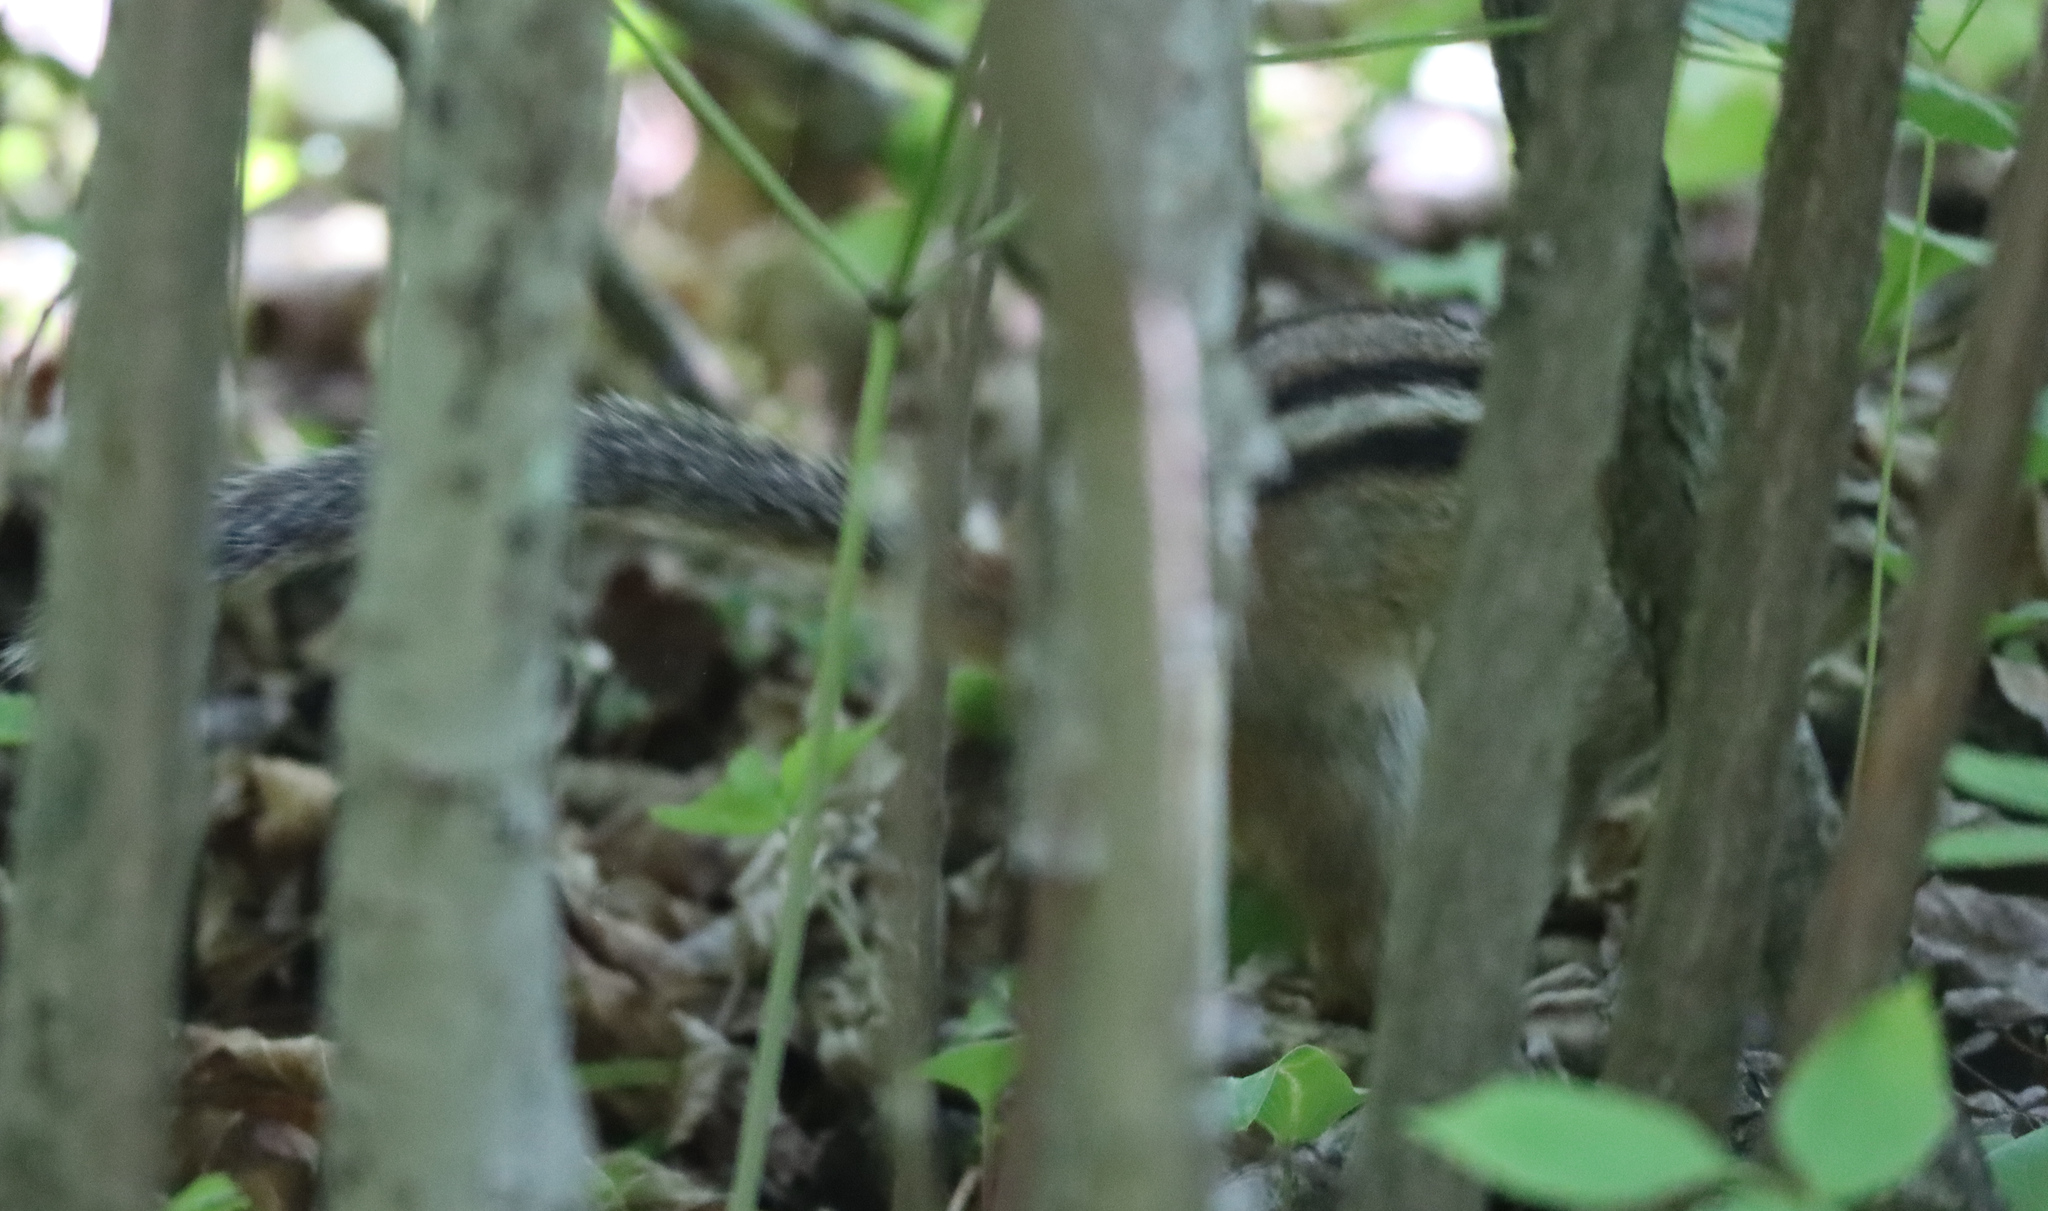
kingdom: Animalia
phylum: Chordata
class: Mammalia
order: Rodentia
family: Sciuridae
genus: Tamias
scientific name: Tamias striatus
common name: Eastern chipmunk
